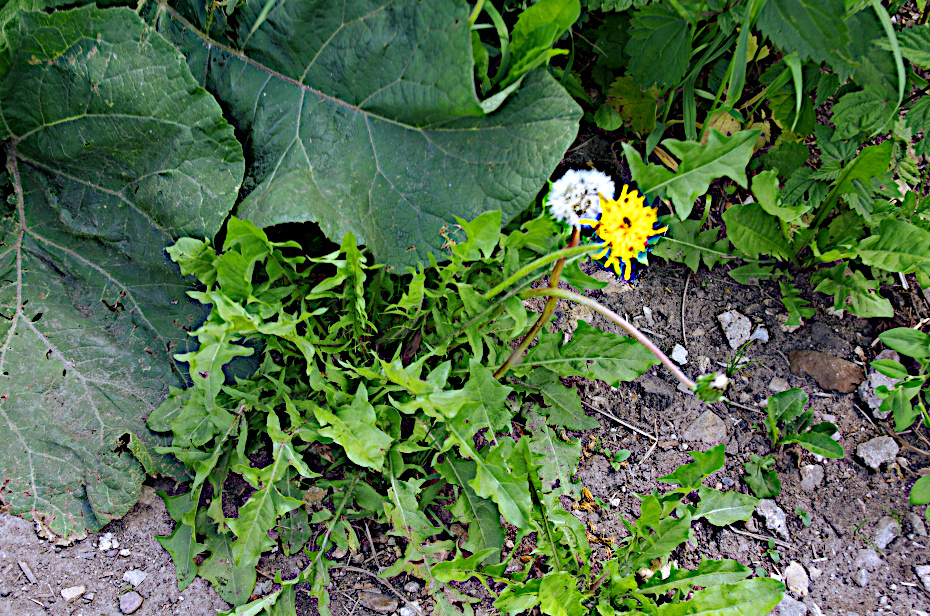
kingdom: Plantae
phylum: Tracheophyta
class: Magnoliopsida
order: Asterales
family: Asteraceae
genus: Taraxacum
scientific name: Taraxacum officinale
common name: Common dandelion
